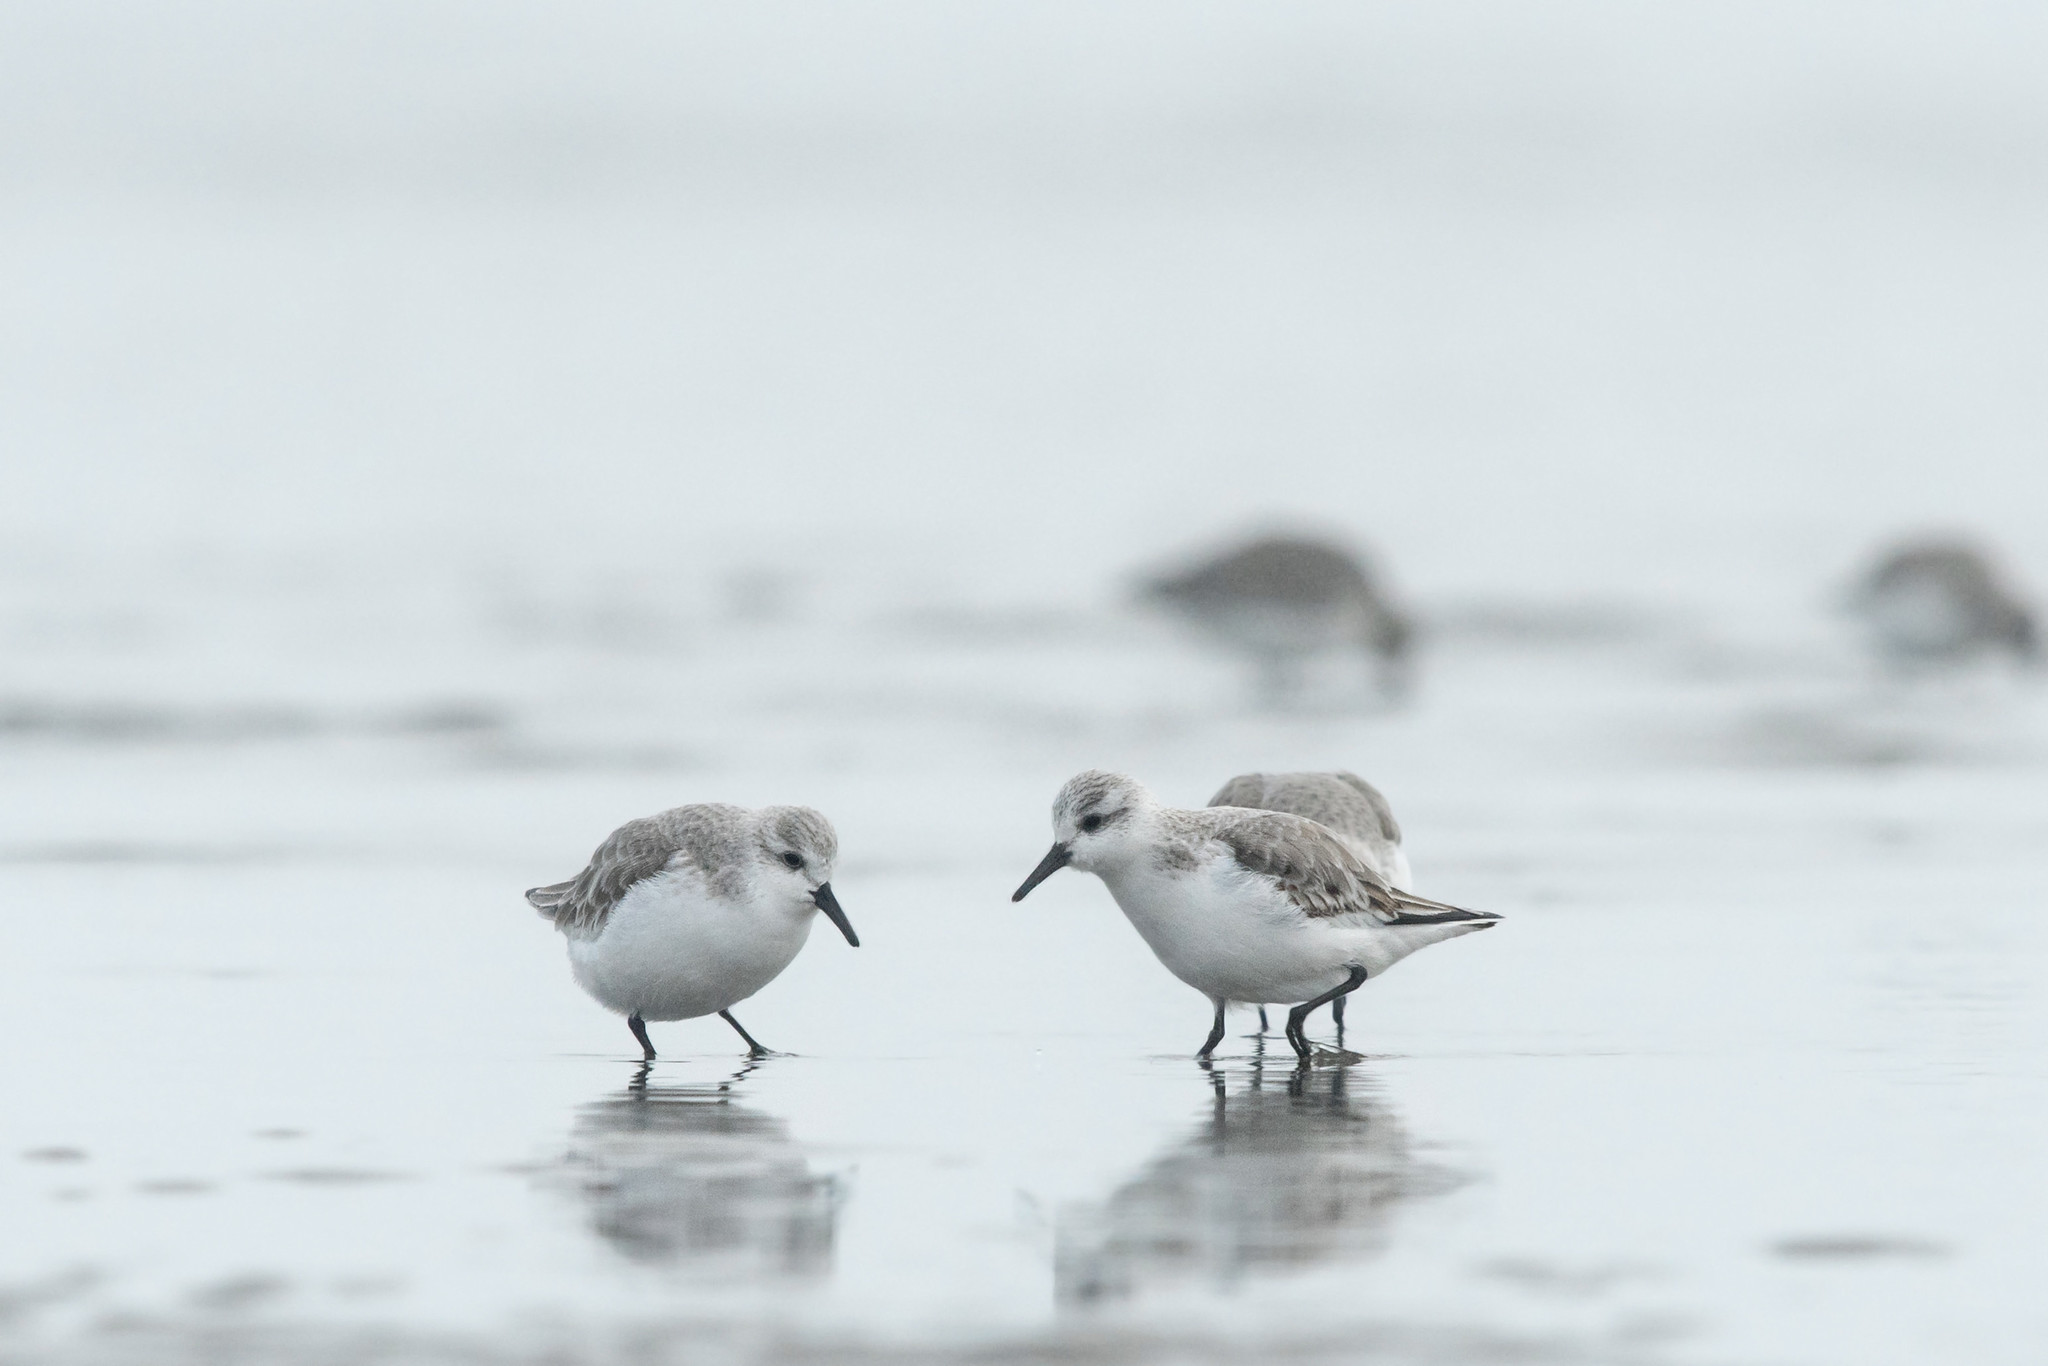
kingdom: Animalia
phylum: Chordata
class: Aves
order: Charadriiformes
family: Scolopacidae
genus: Calidris
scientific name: Calidris alba
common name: Sanderling
